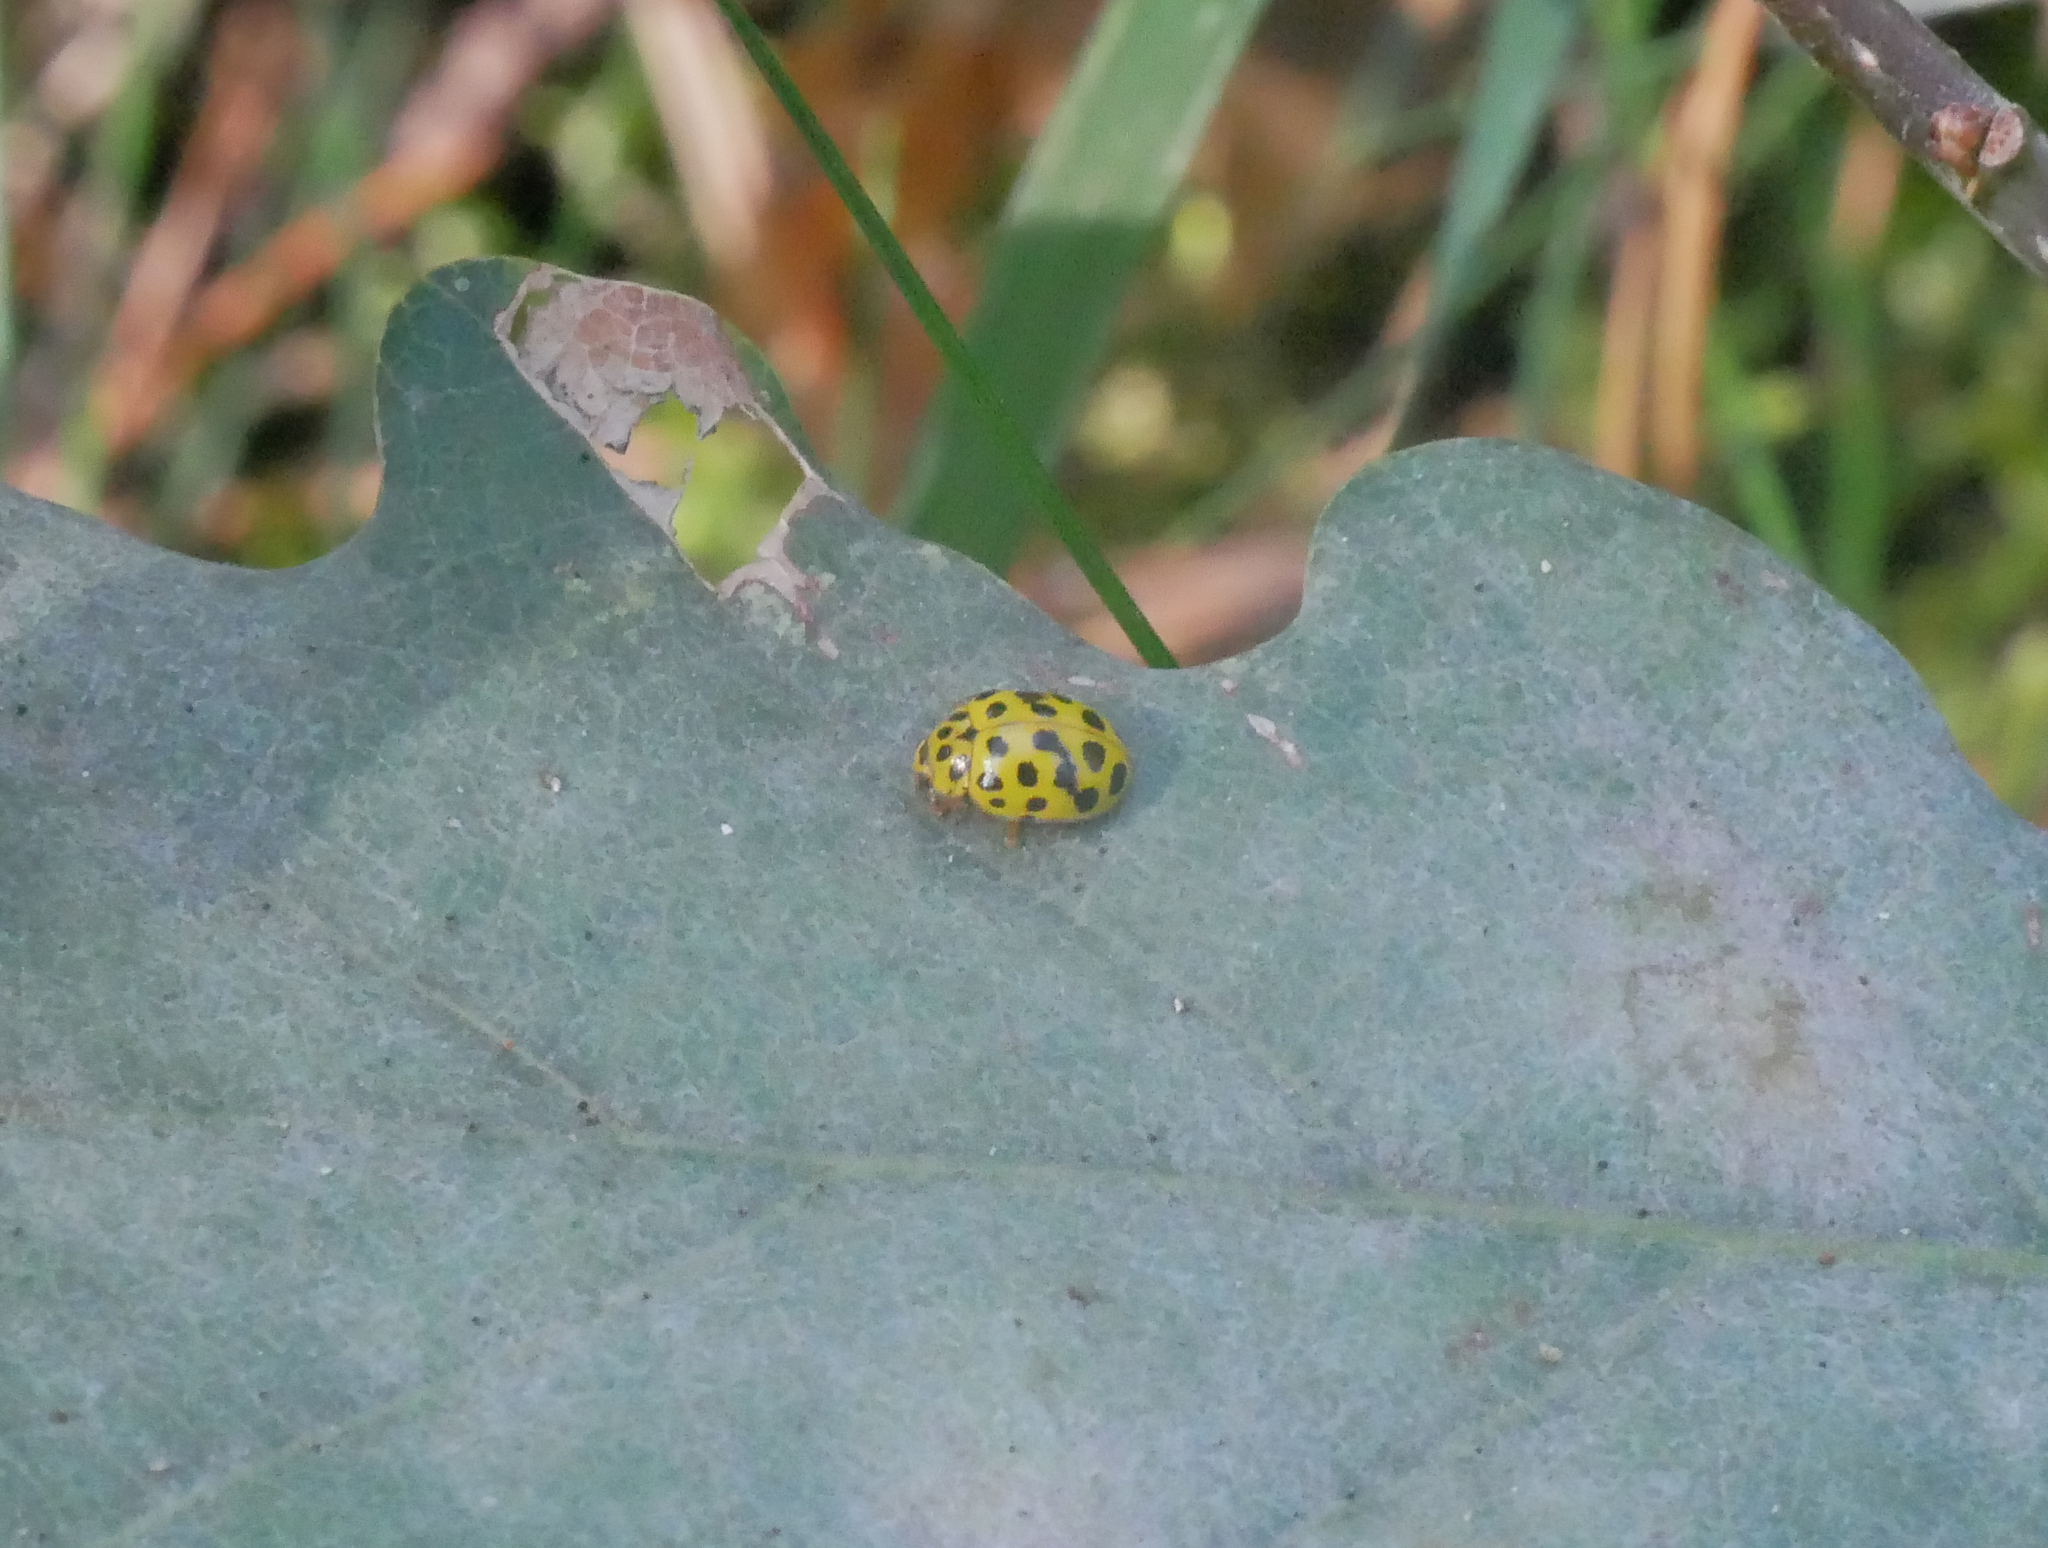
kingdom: Animalia
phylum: Arthropoda
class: Insecta
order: Coleoptera
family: Coccinellidae
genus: Psyllobora
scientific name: Psyllobora vigintiduopunctata
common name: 22-spot ladybird
